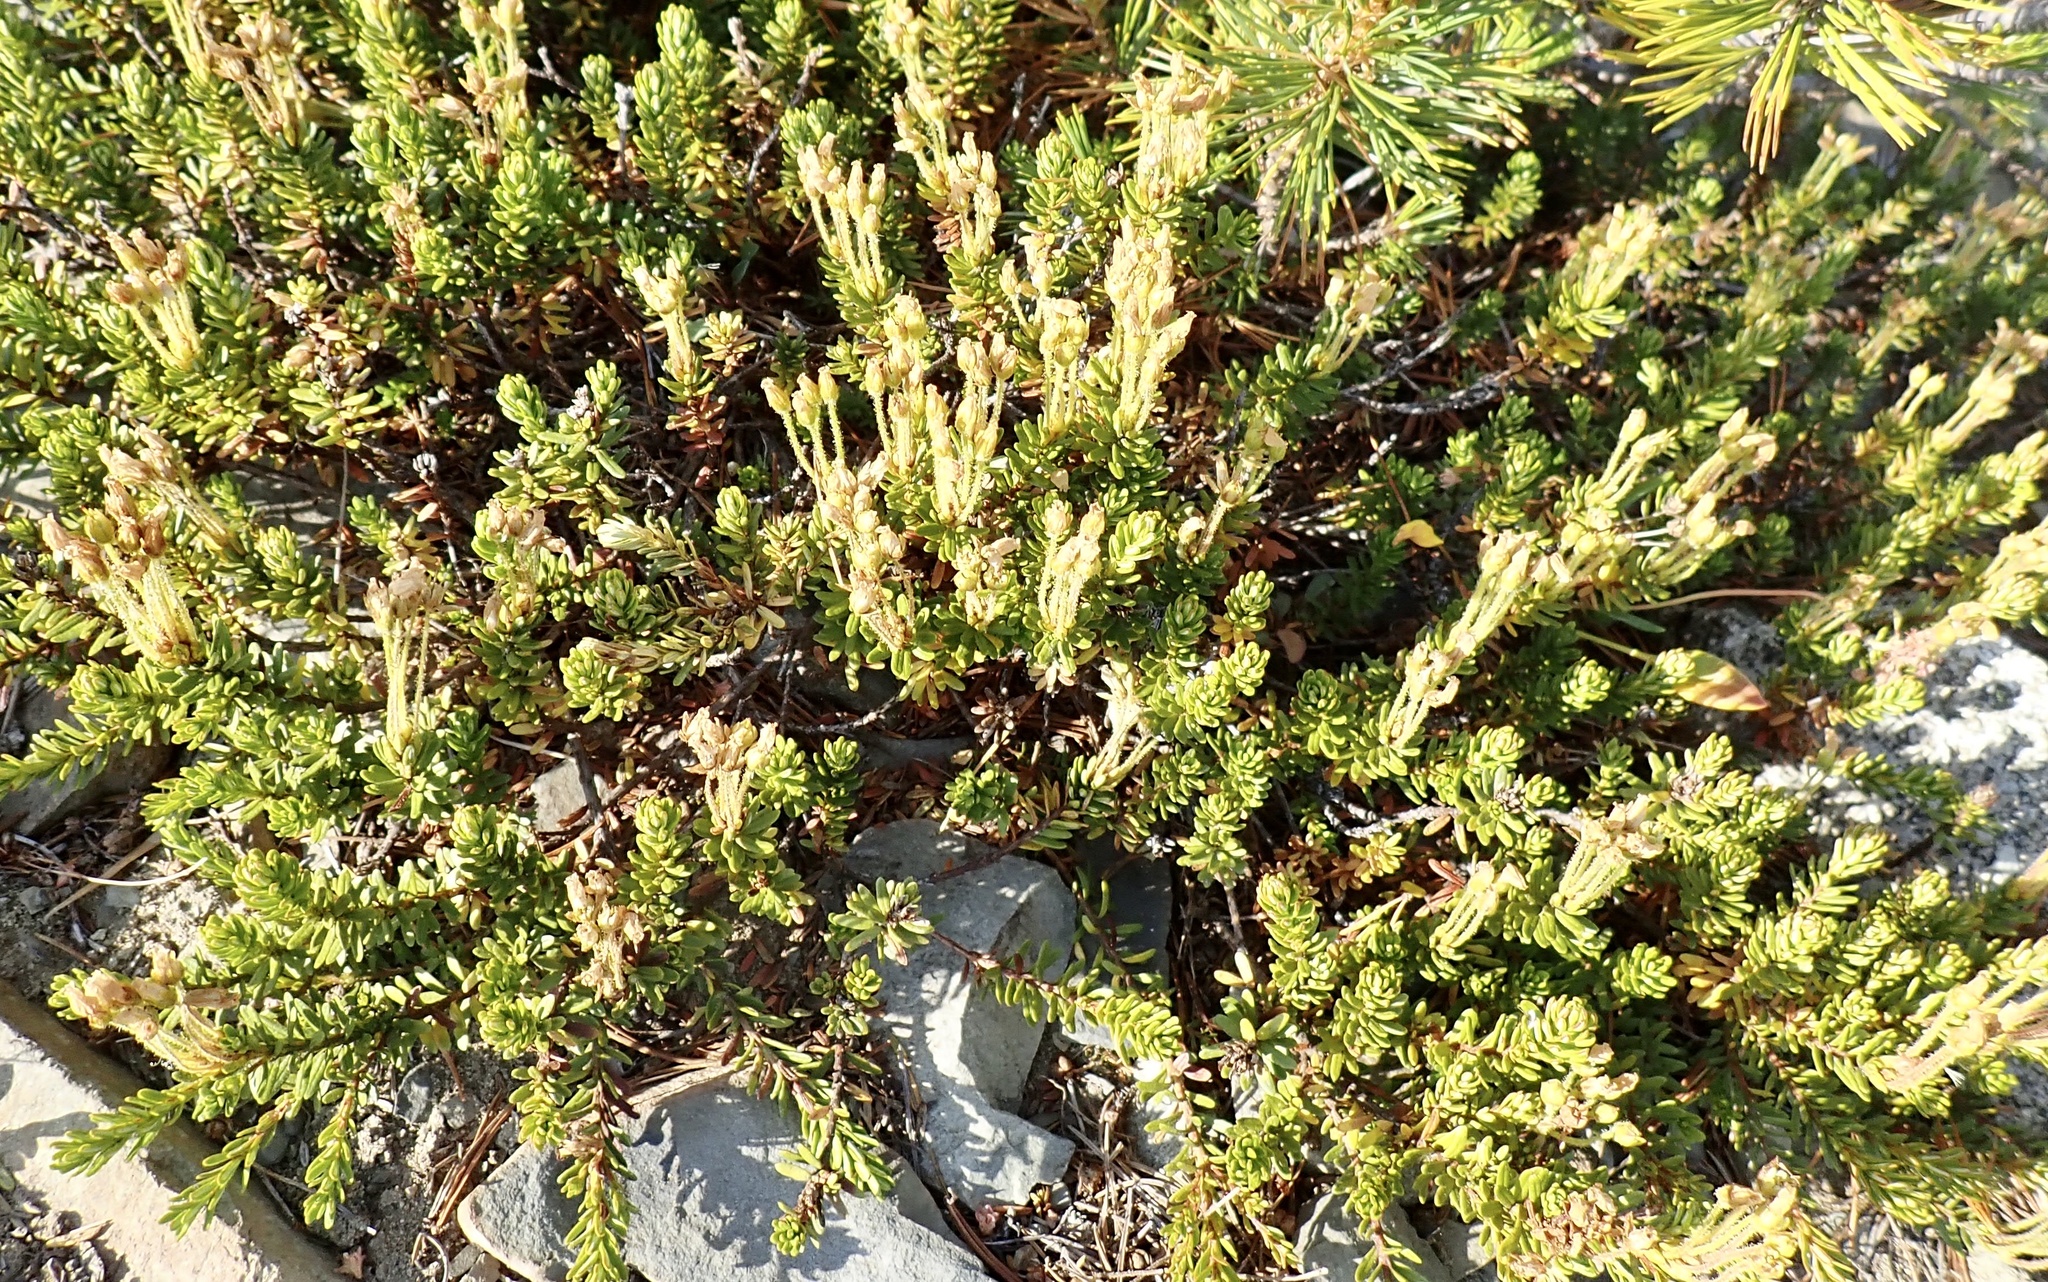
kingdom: Plantae
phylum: Tracheophyta
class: Magnoliopsida
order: Ericales
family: Ericaceae
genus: Phyllodoce
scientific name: Phyllodoce glanduliflora
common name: Cream mountain heather
